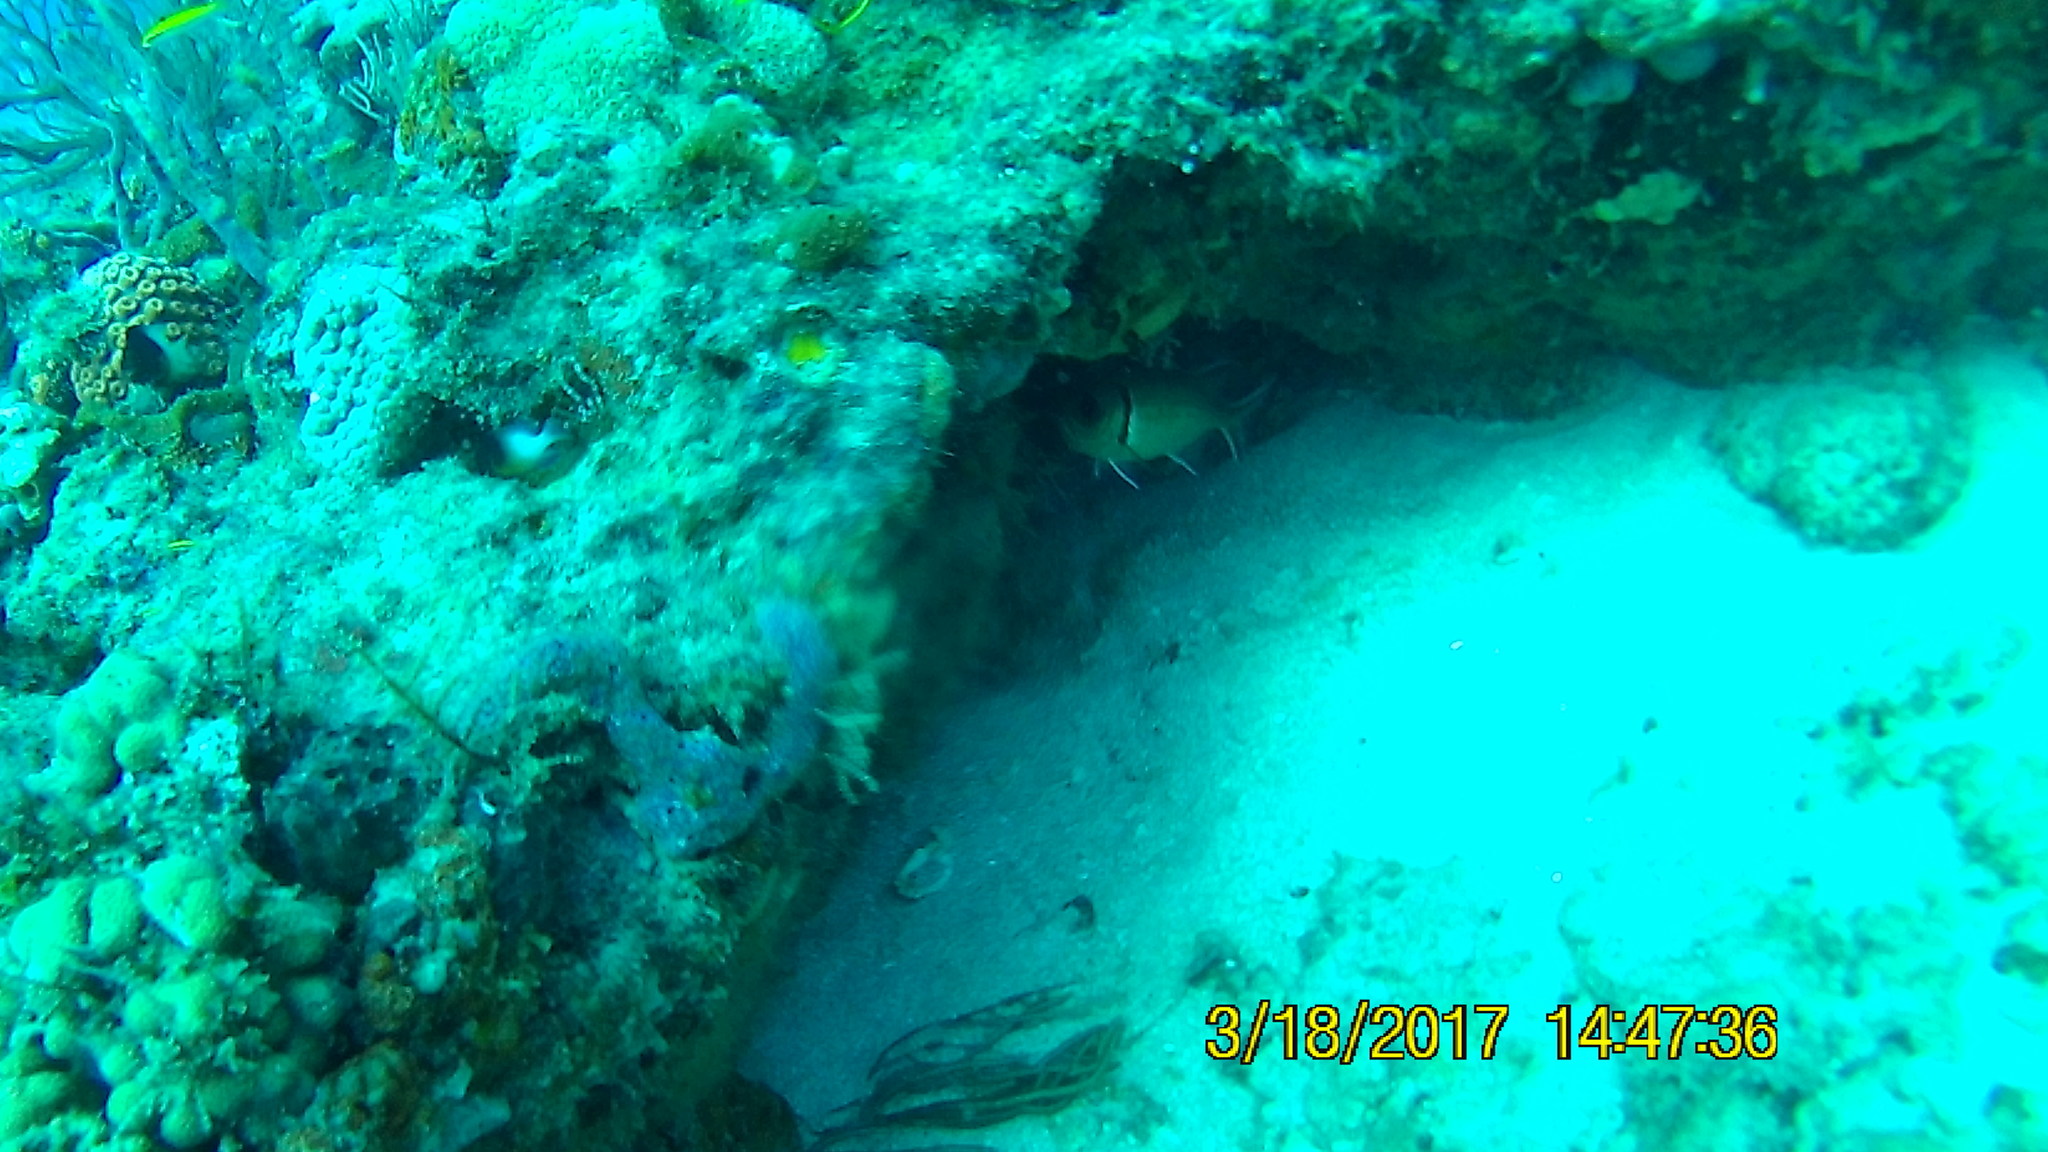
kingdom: Animalia
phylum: Chordata
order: Beryciformes
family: Holocentridae
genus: Myripristis
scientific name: Myripristis jacobus
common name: Blackbar soldierfish
